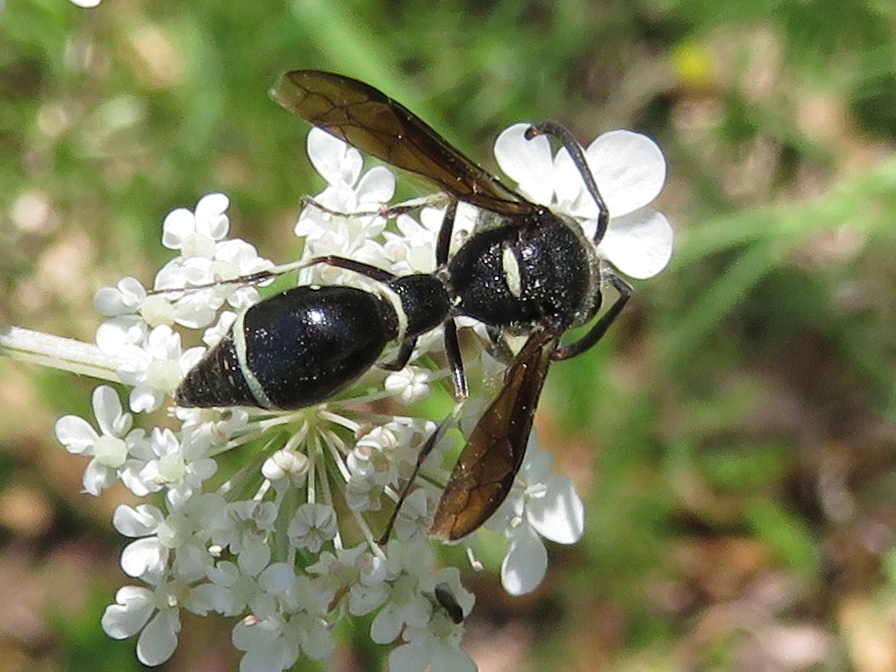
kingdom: Animalia
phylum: Arthropoda
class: Insecta
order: Hymenoptera
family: Vespidae
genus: Eumenes
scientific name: Eumenes fraternus
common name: Fraternal potter wasp
